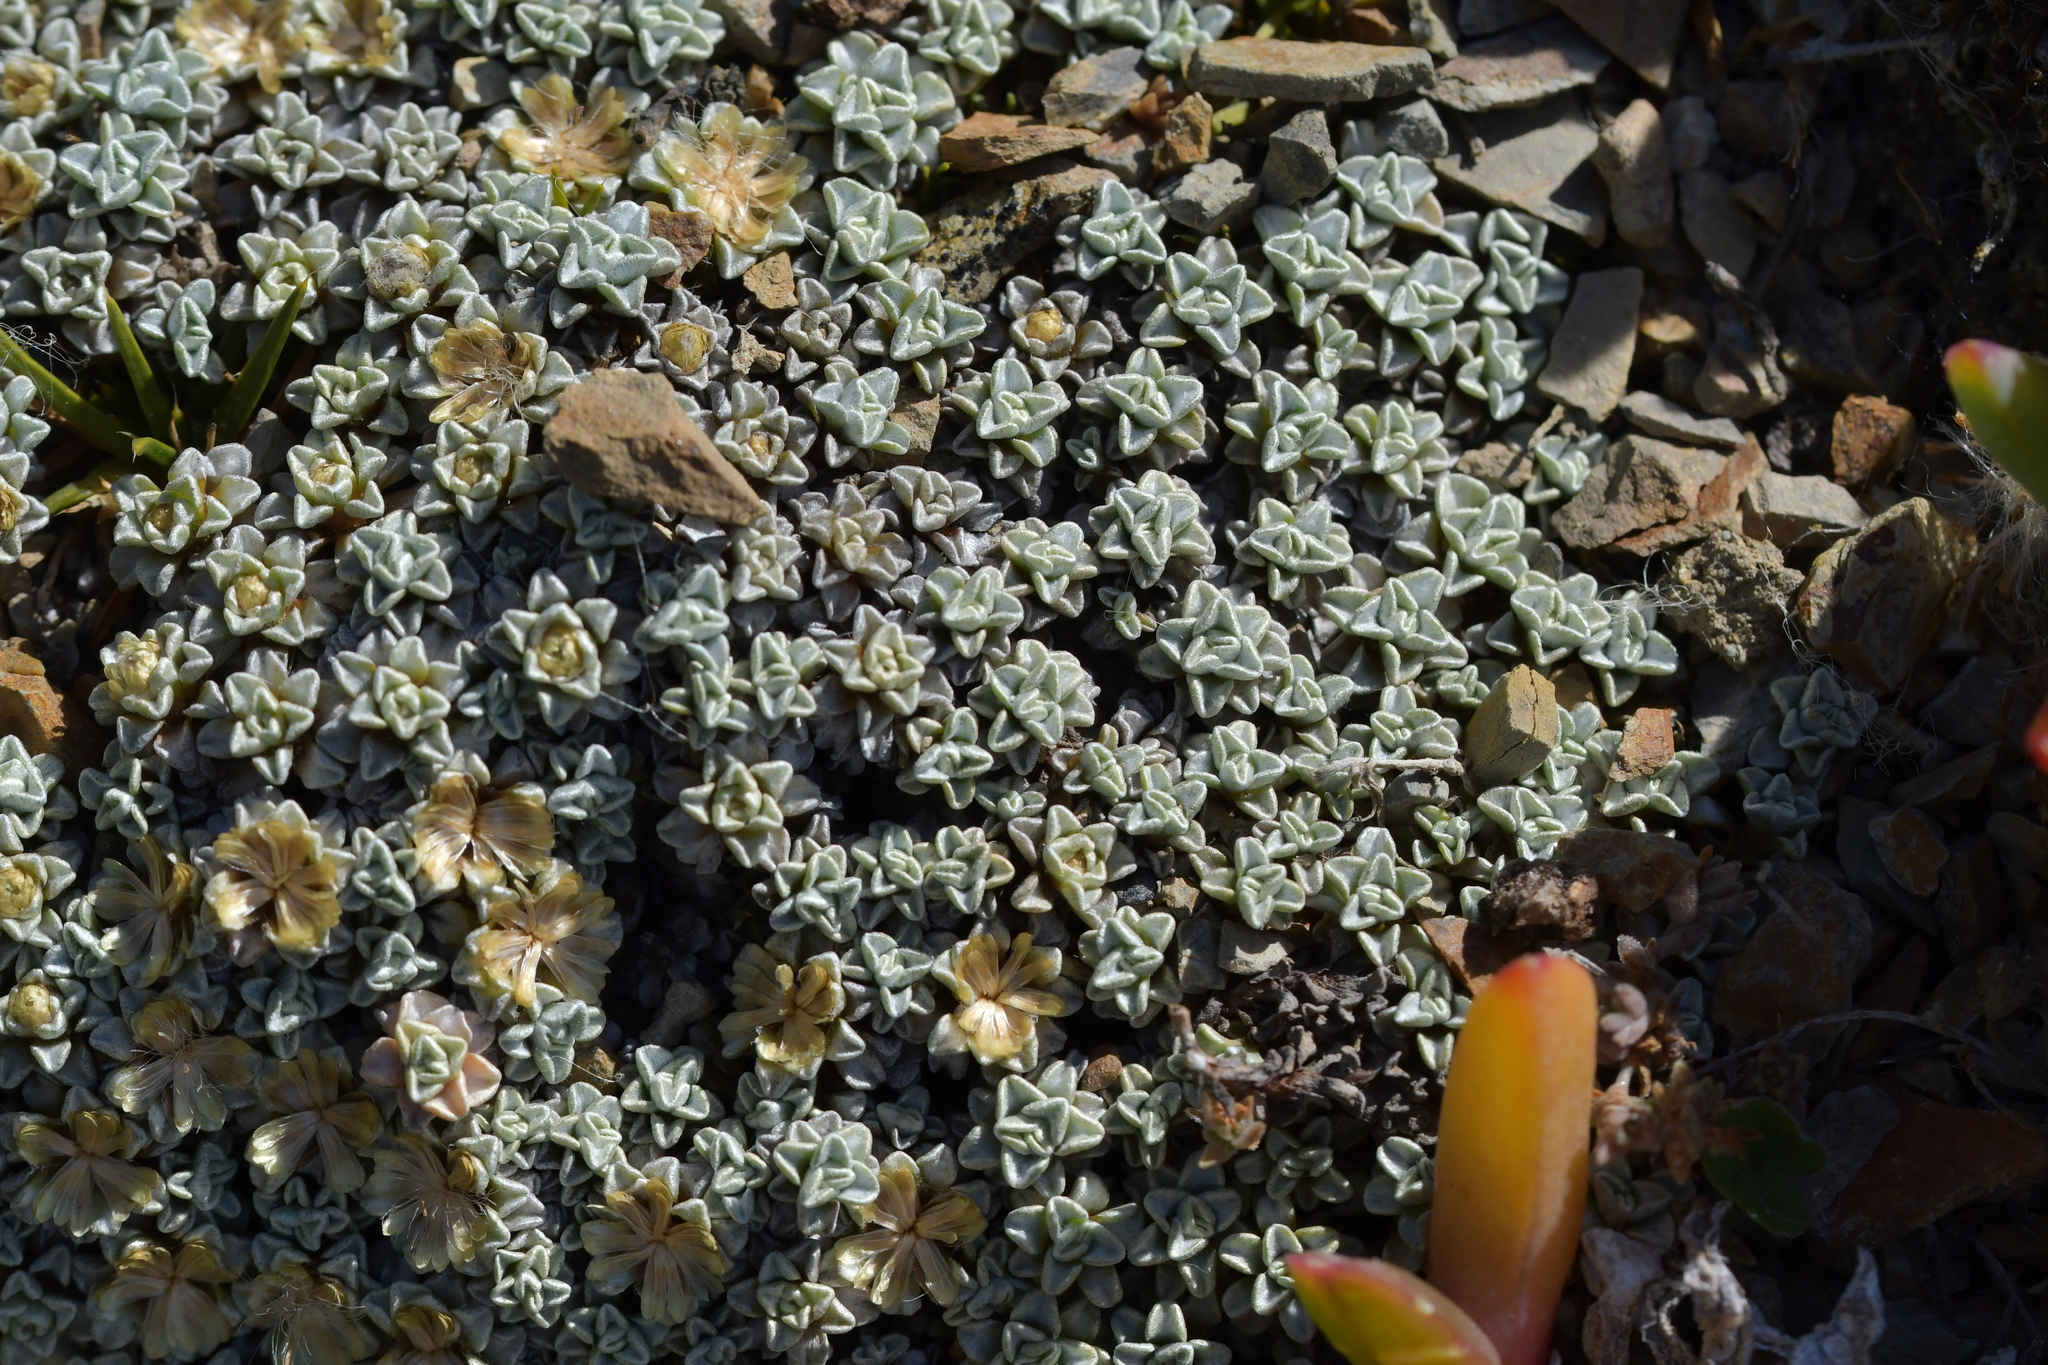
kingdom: Plantae
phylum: Tracheophyta
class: Magnoliopsida
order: Asterales
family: Asteraceae
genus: Raoulia
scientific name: Raoulia hookeri
